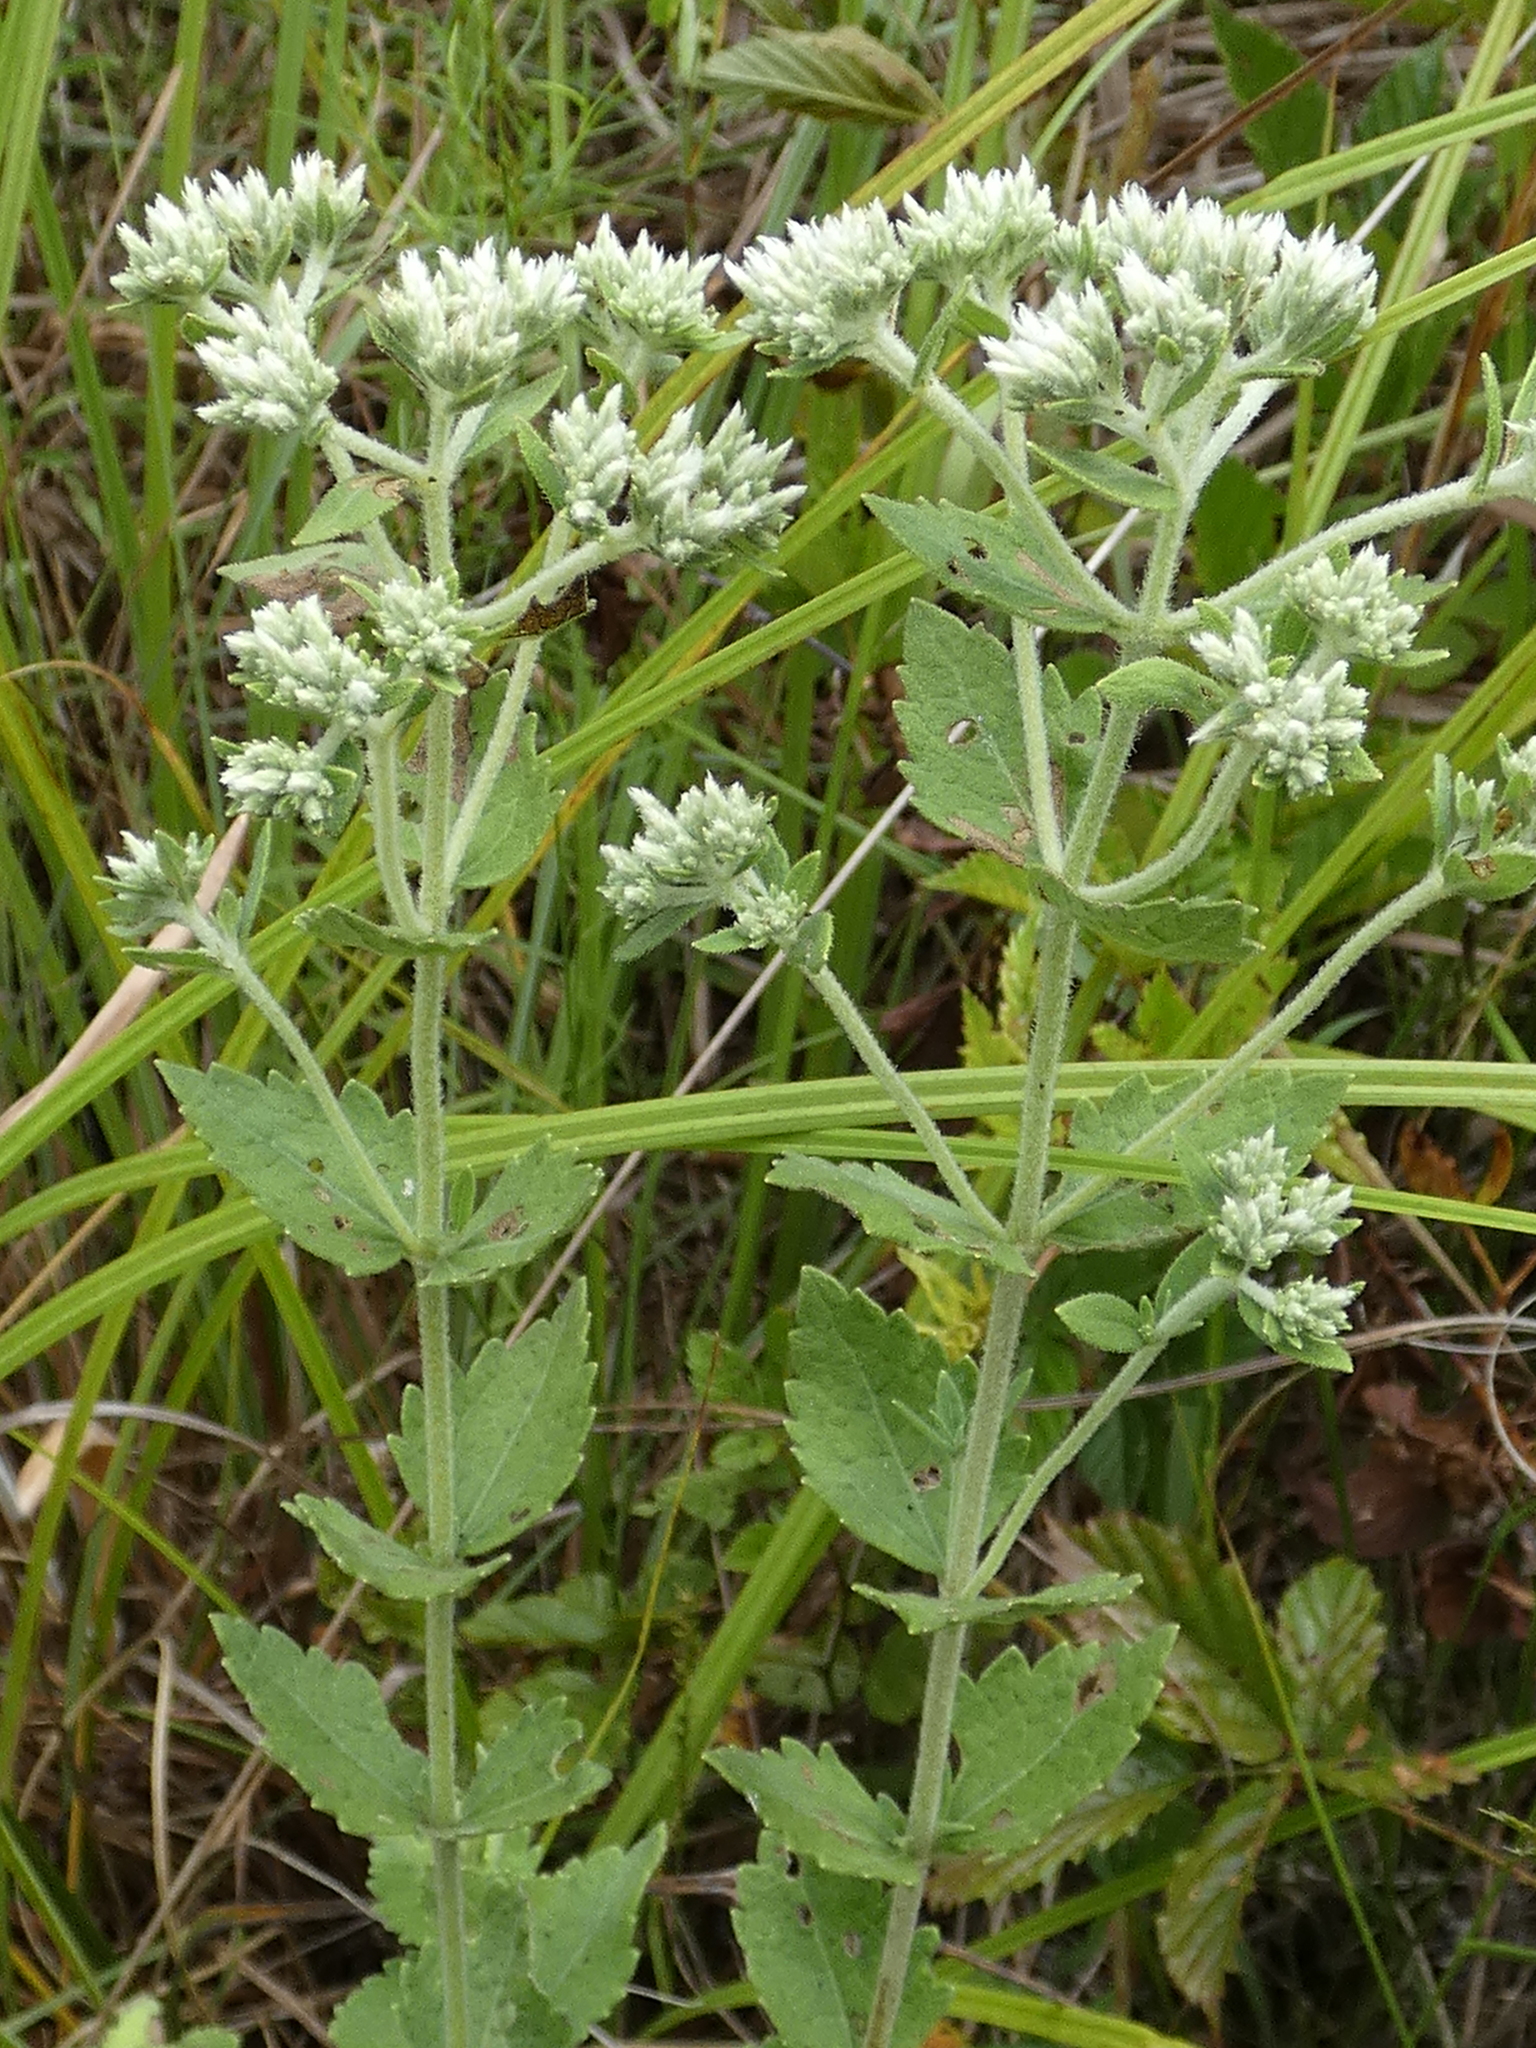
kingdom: Plantae
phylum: Tracheophyta
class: Magnoliopsida
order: Asterales
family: Asteraceae
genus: Eupatorium
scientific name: Eupatorium rotundifolium
